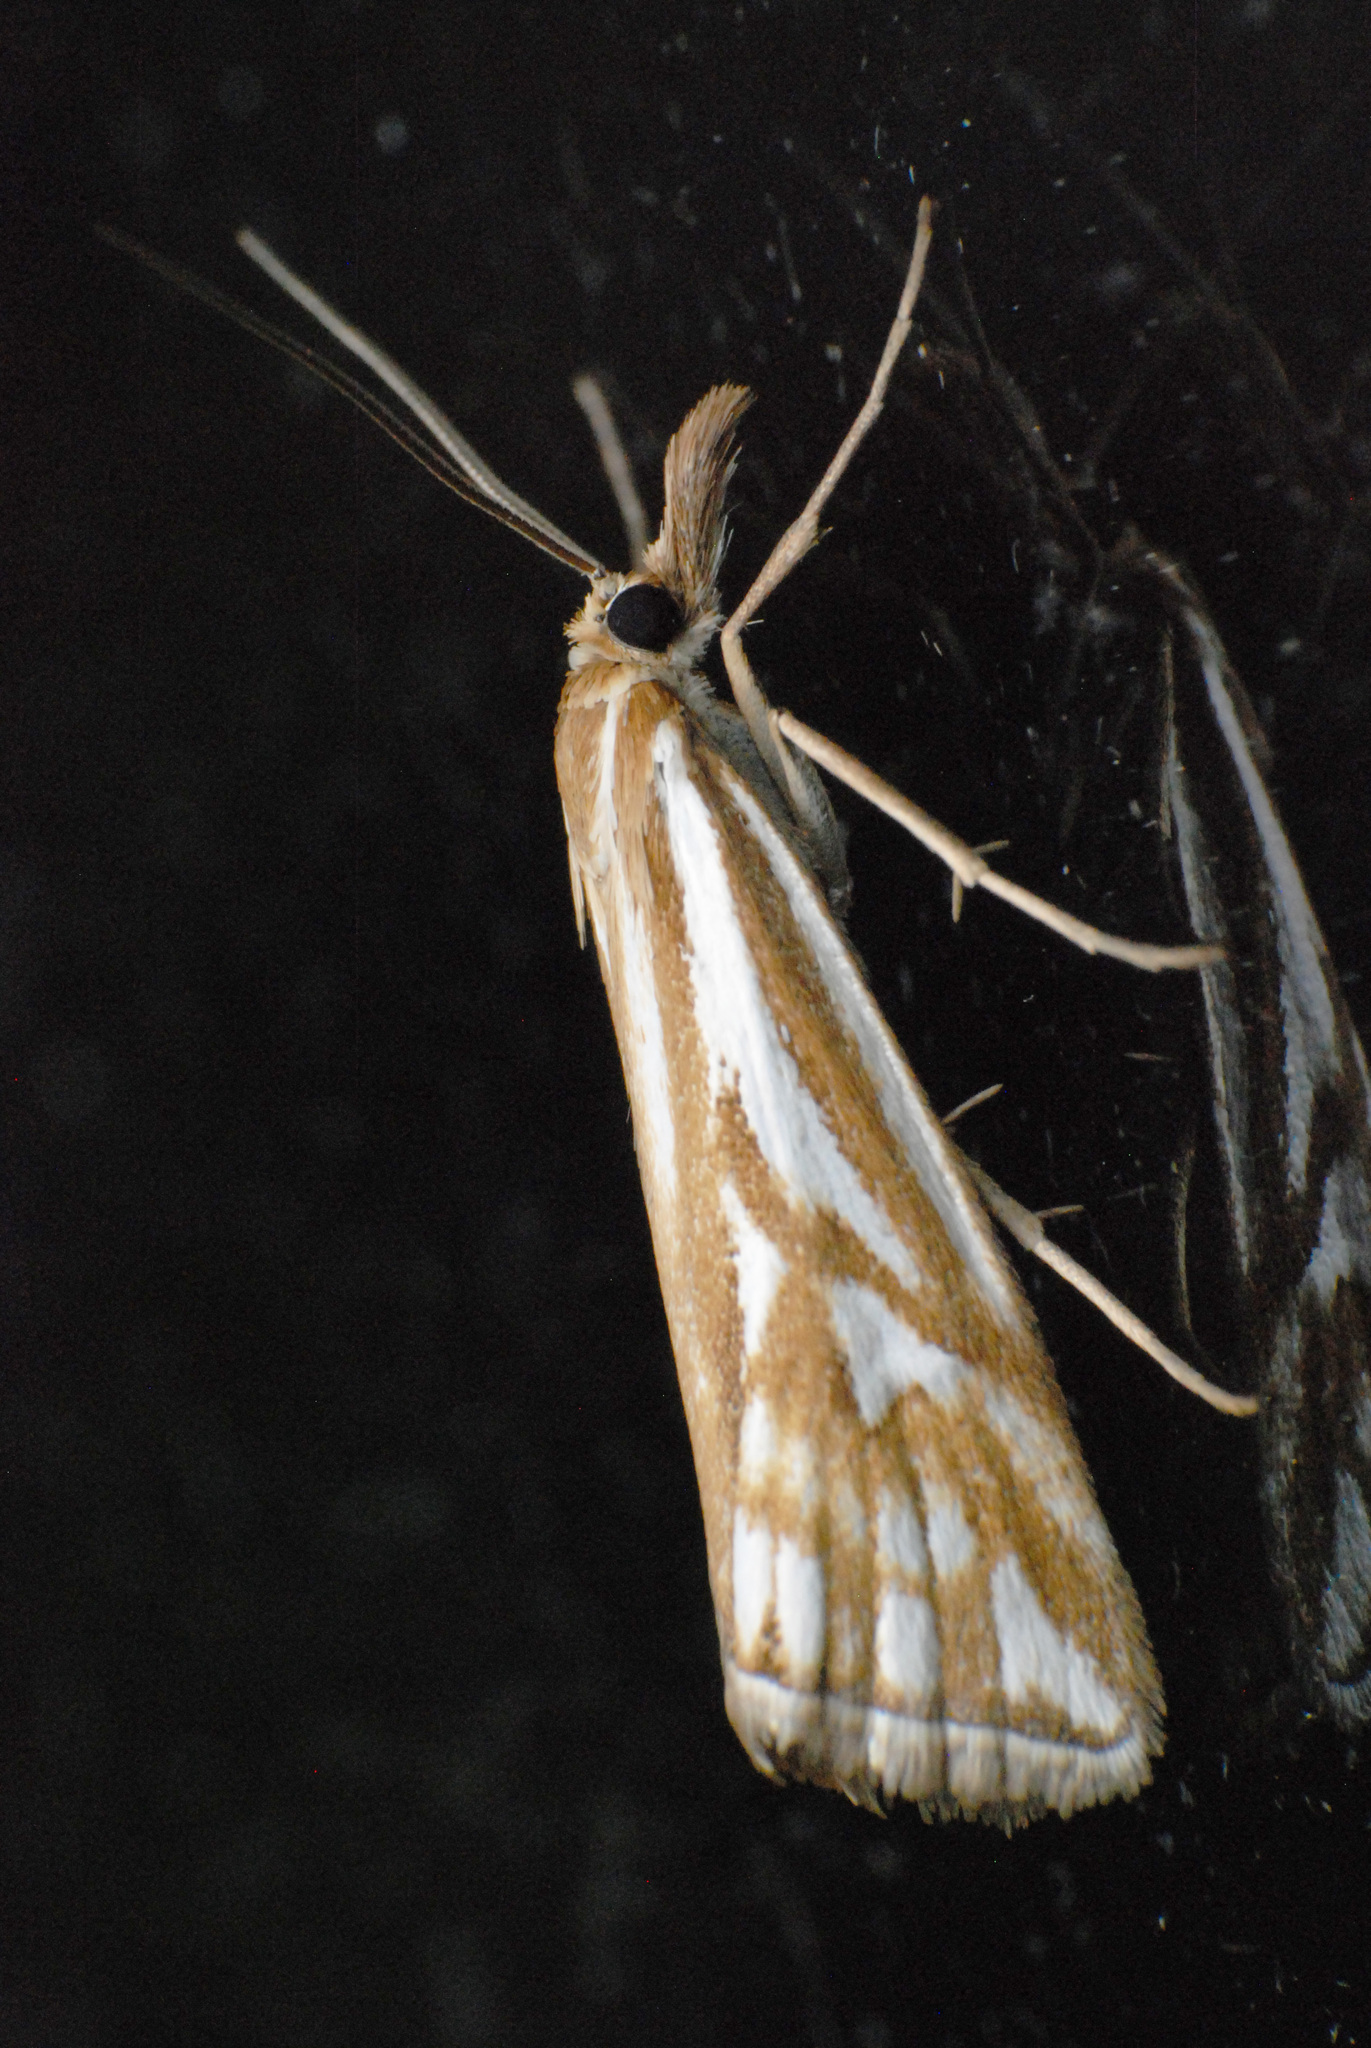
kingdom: Animalia
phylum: Arthropoda
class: Insecta
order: Lepidoptera
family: Crambidae
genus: Hednota
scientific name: Hednota pleniferellus
